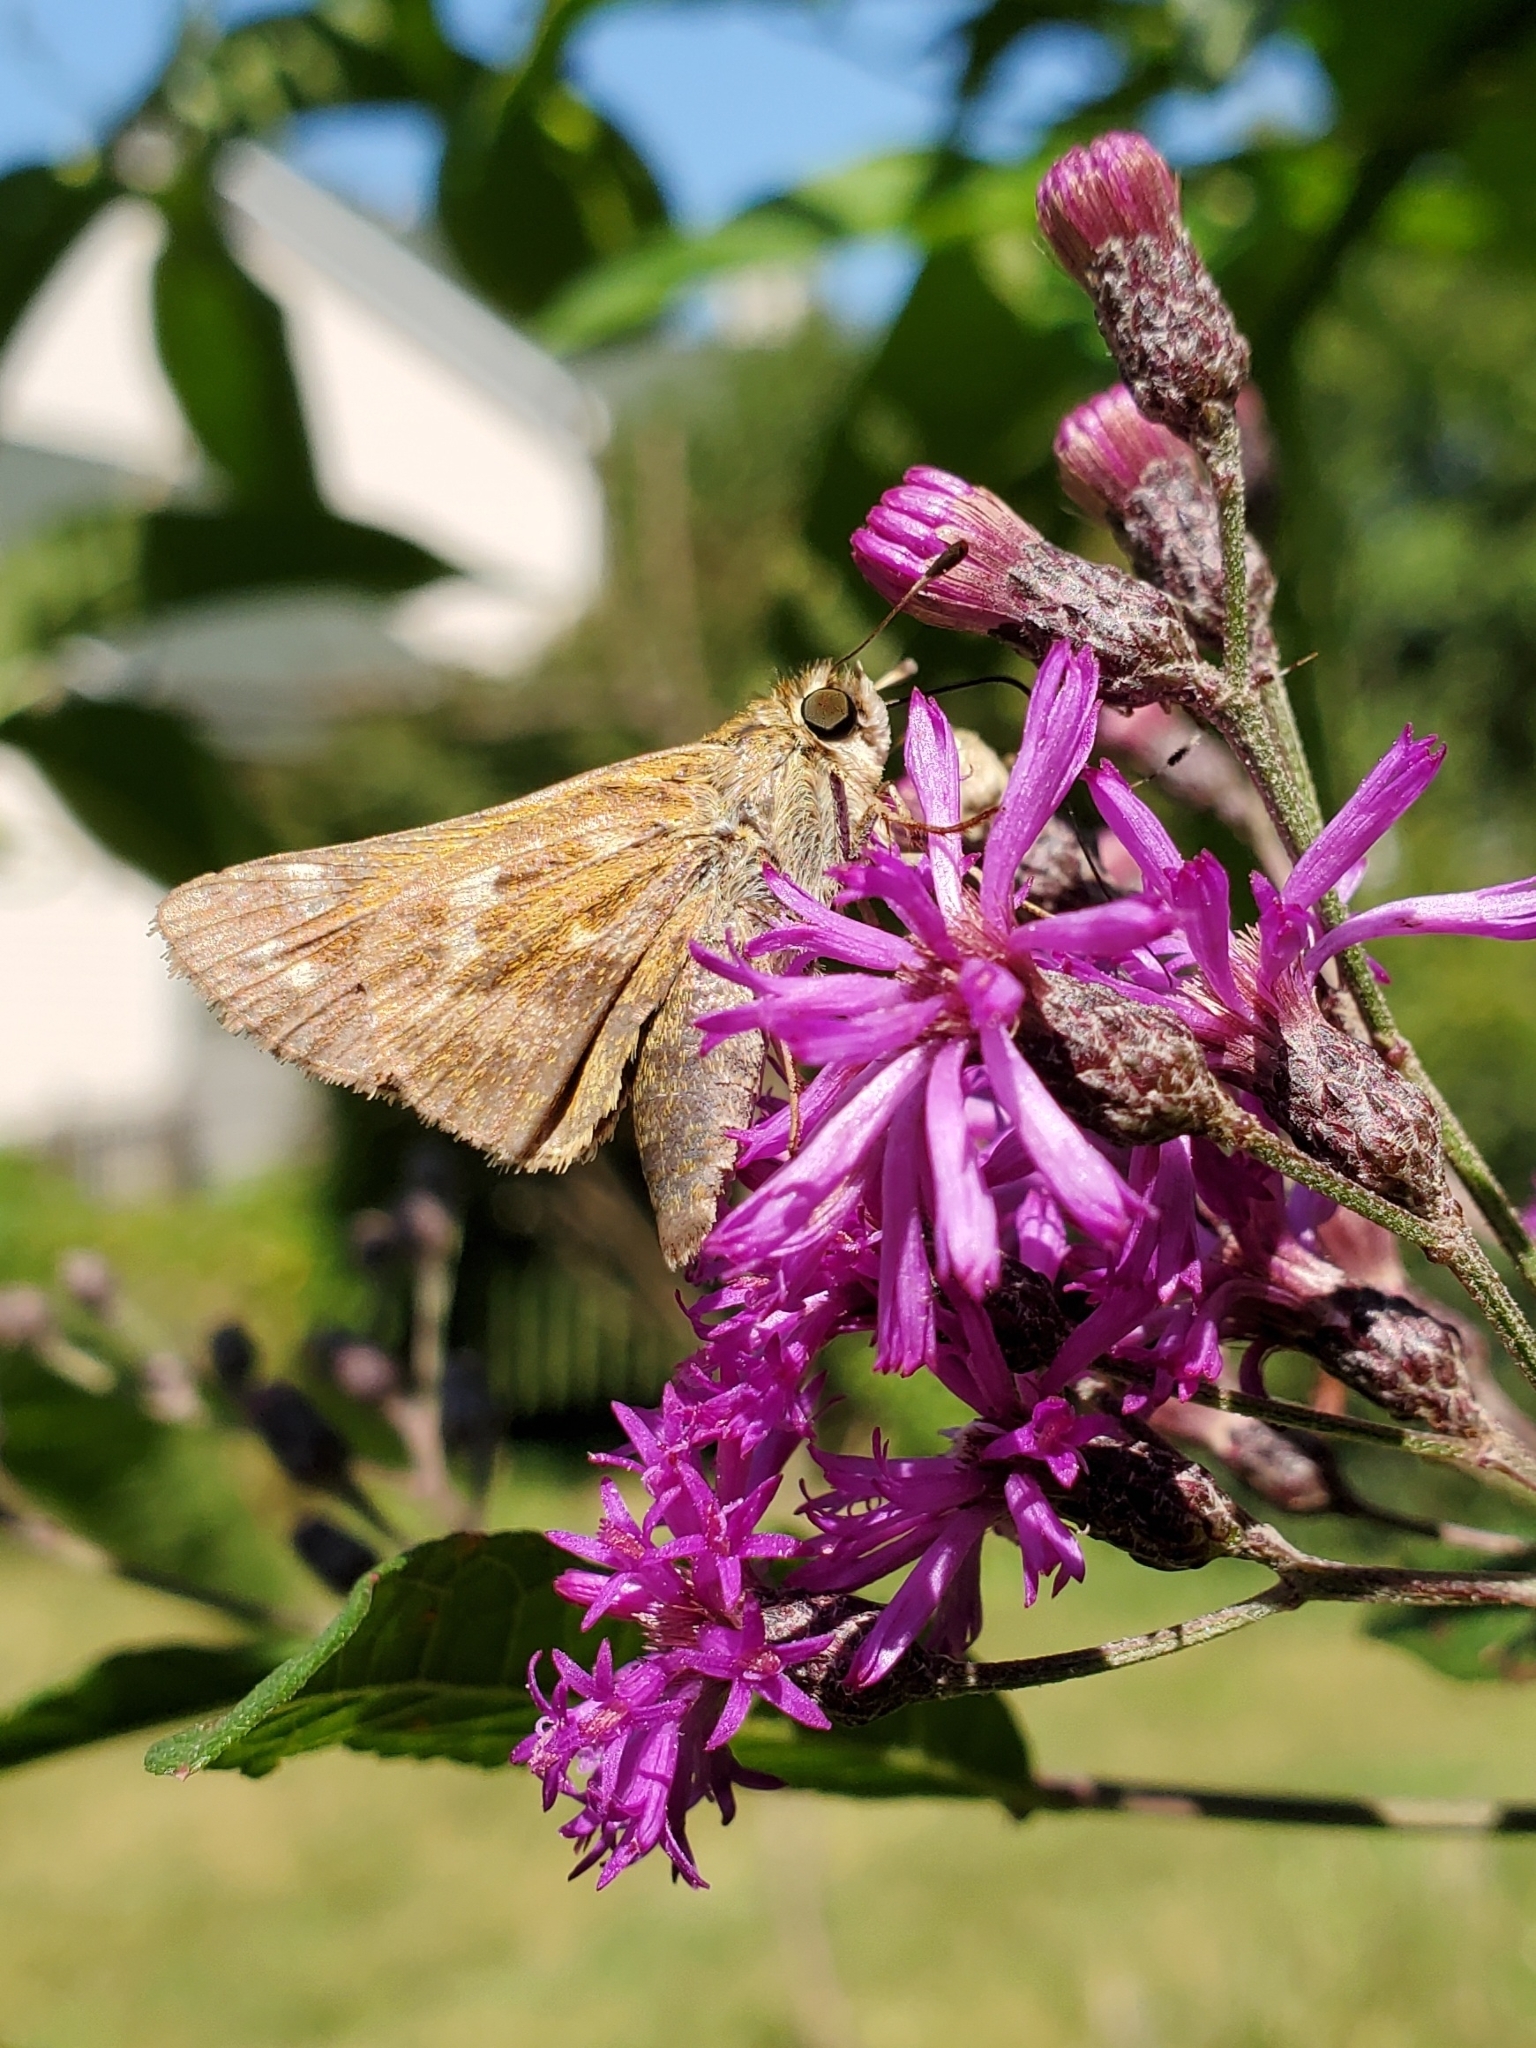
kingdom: Animalia
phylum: Arthropoda
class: Insecta
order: Lepidoptera
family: Hesperiidae
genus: Atalopedes
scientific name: Atalopedes
